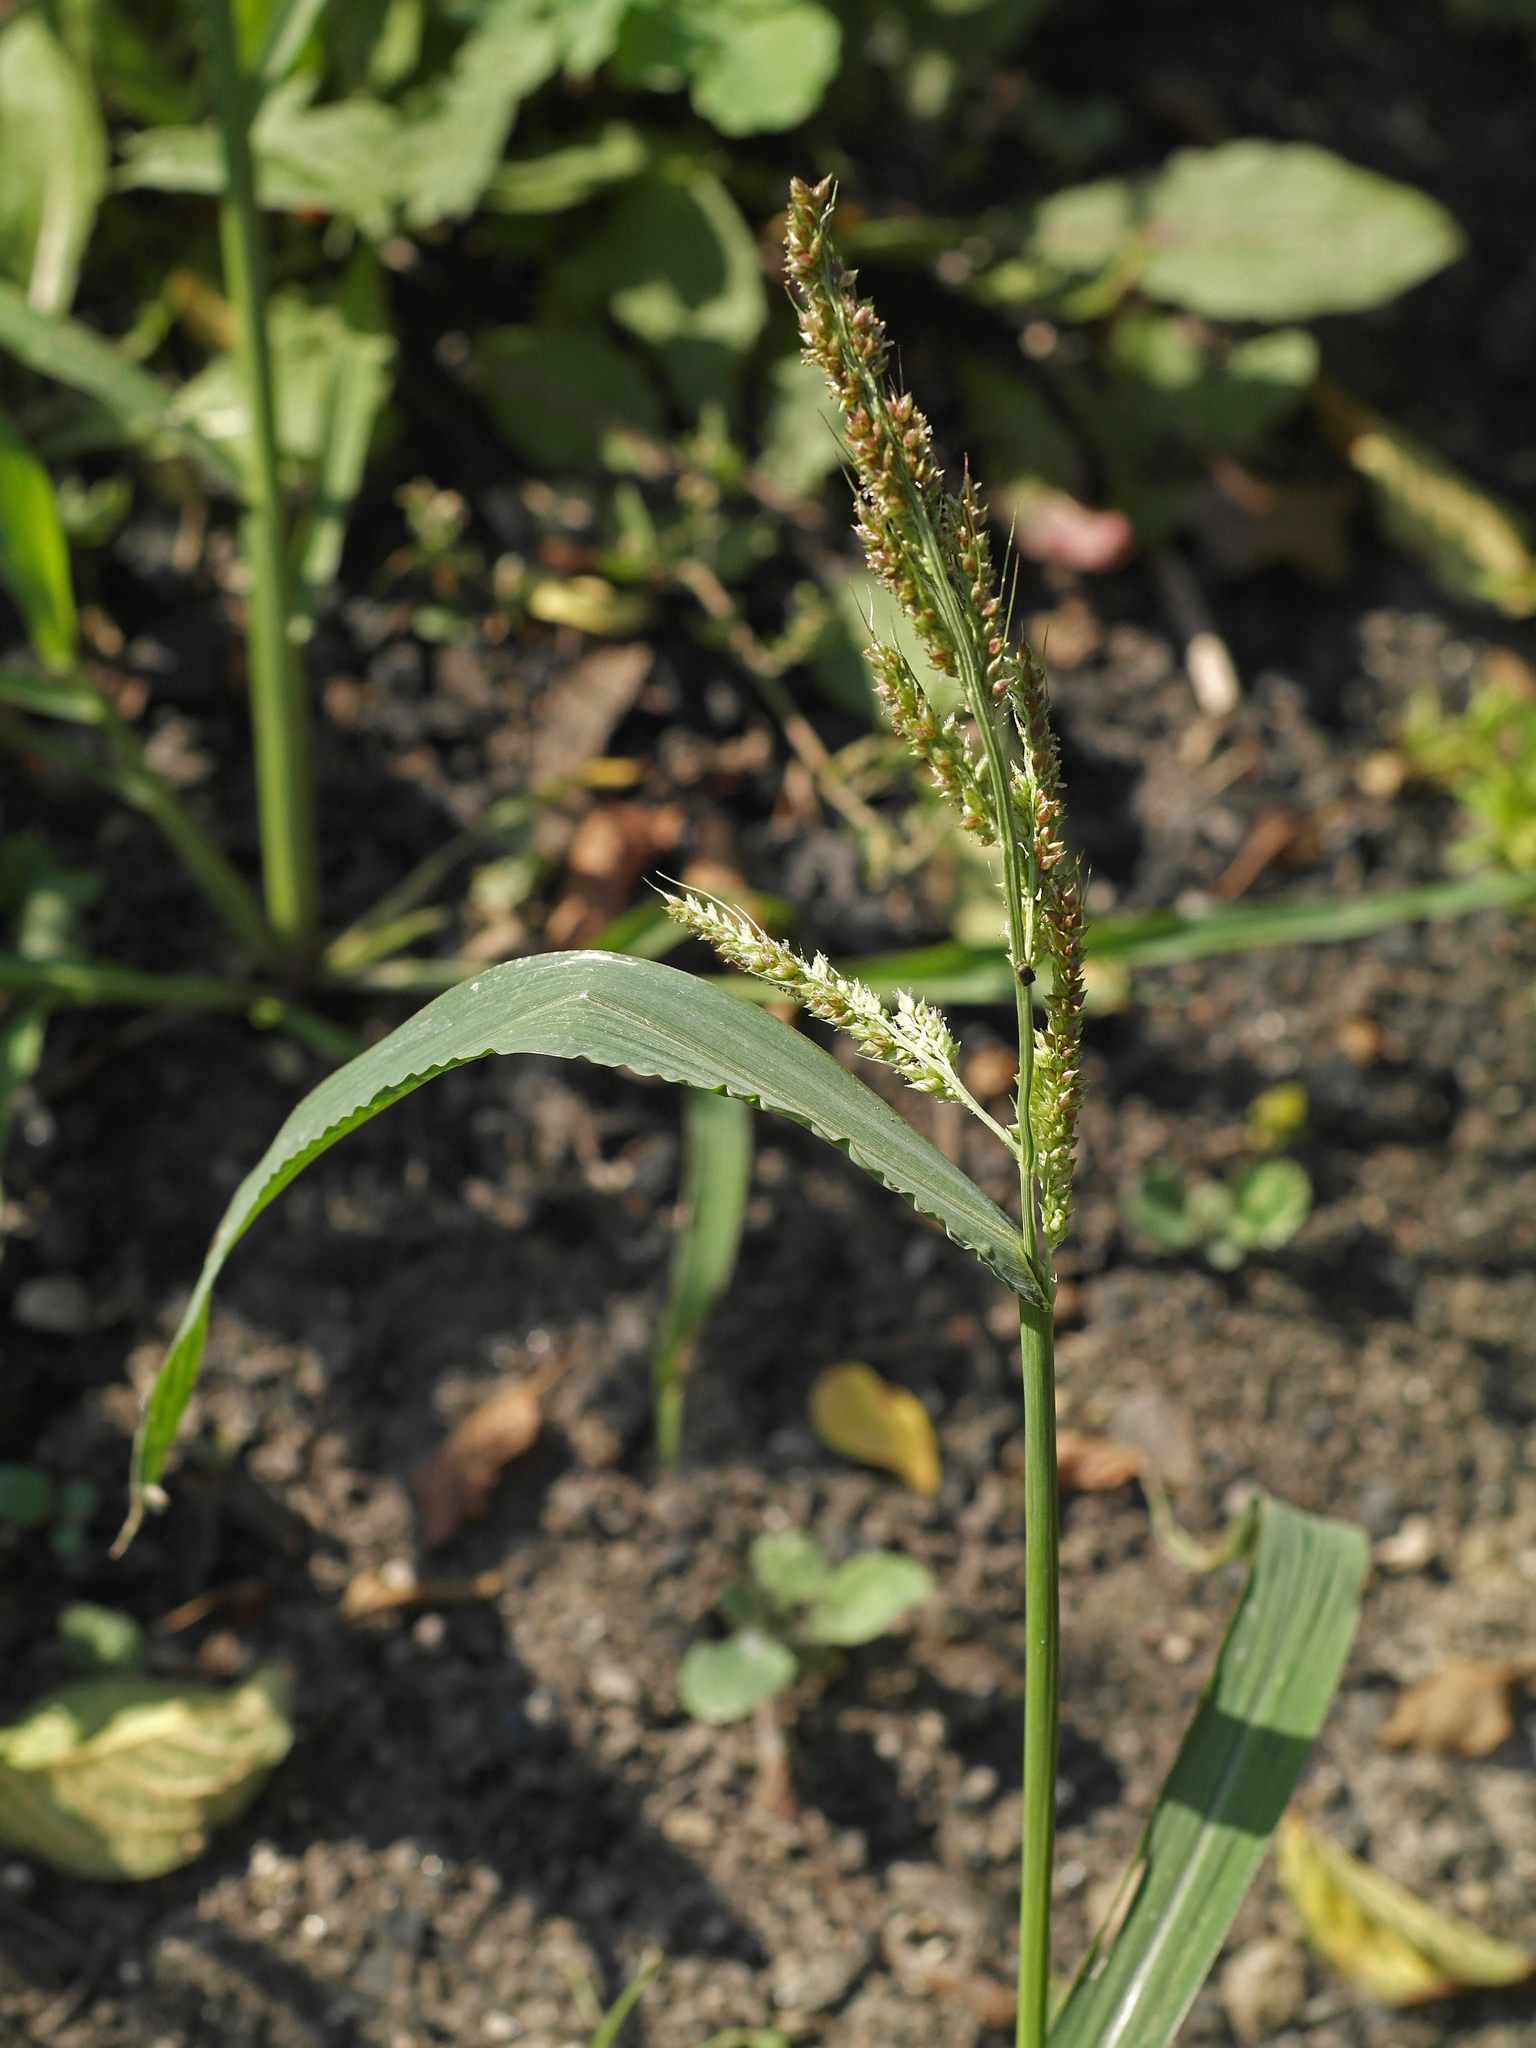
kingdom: Plantae
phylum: Tracheophyta
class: Liliopsida
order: Poales
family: Poaceae
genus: Echinochloa
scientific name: Echinochloa crus-galli
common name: Cockspur
